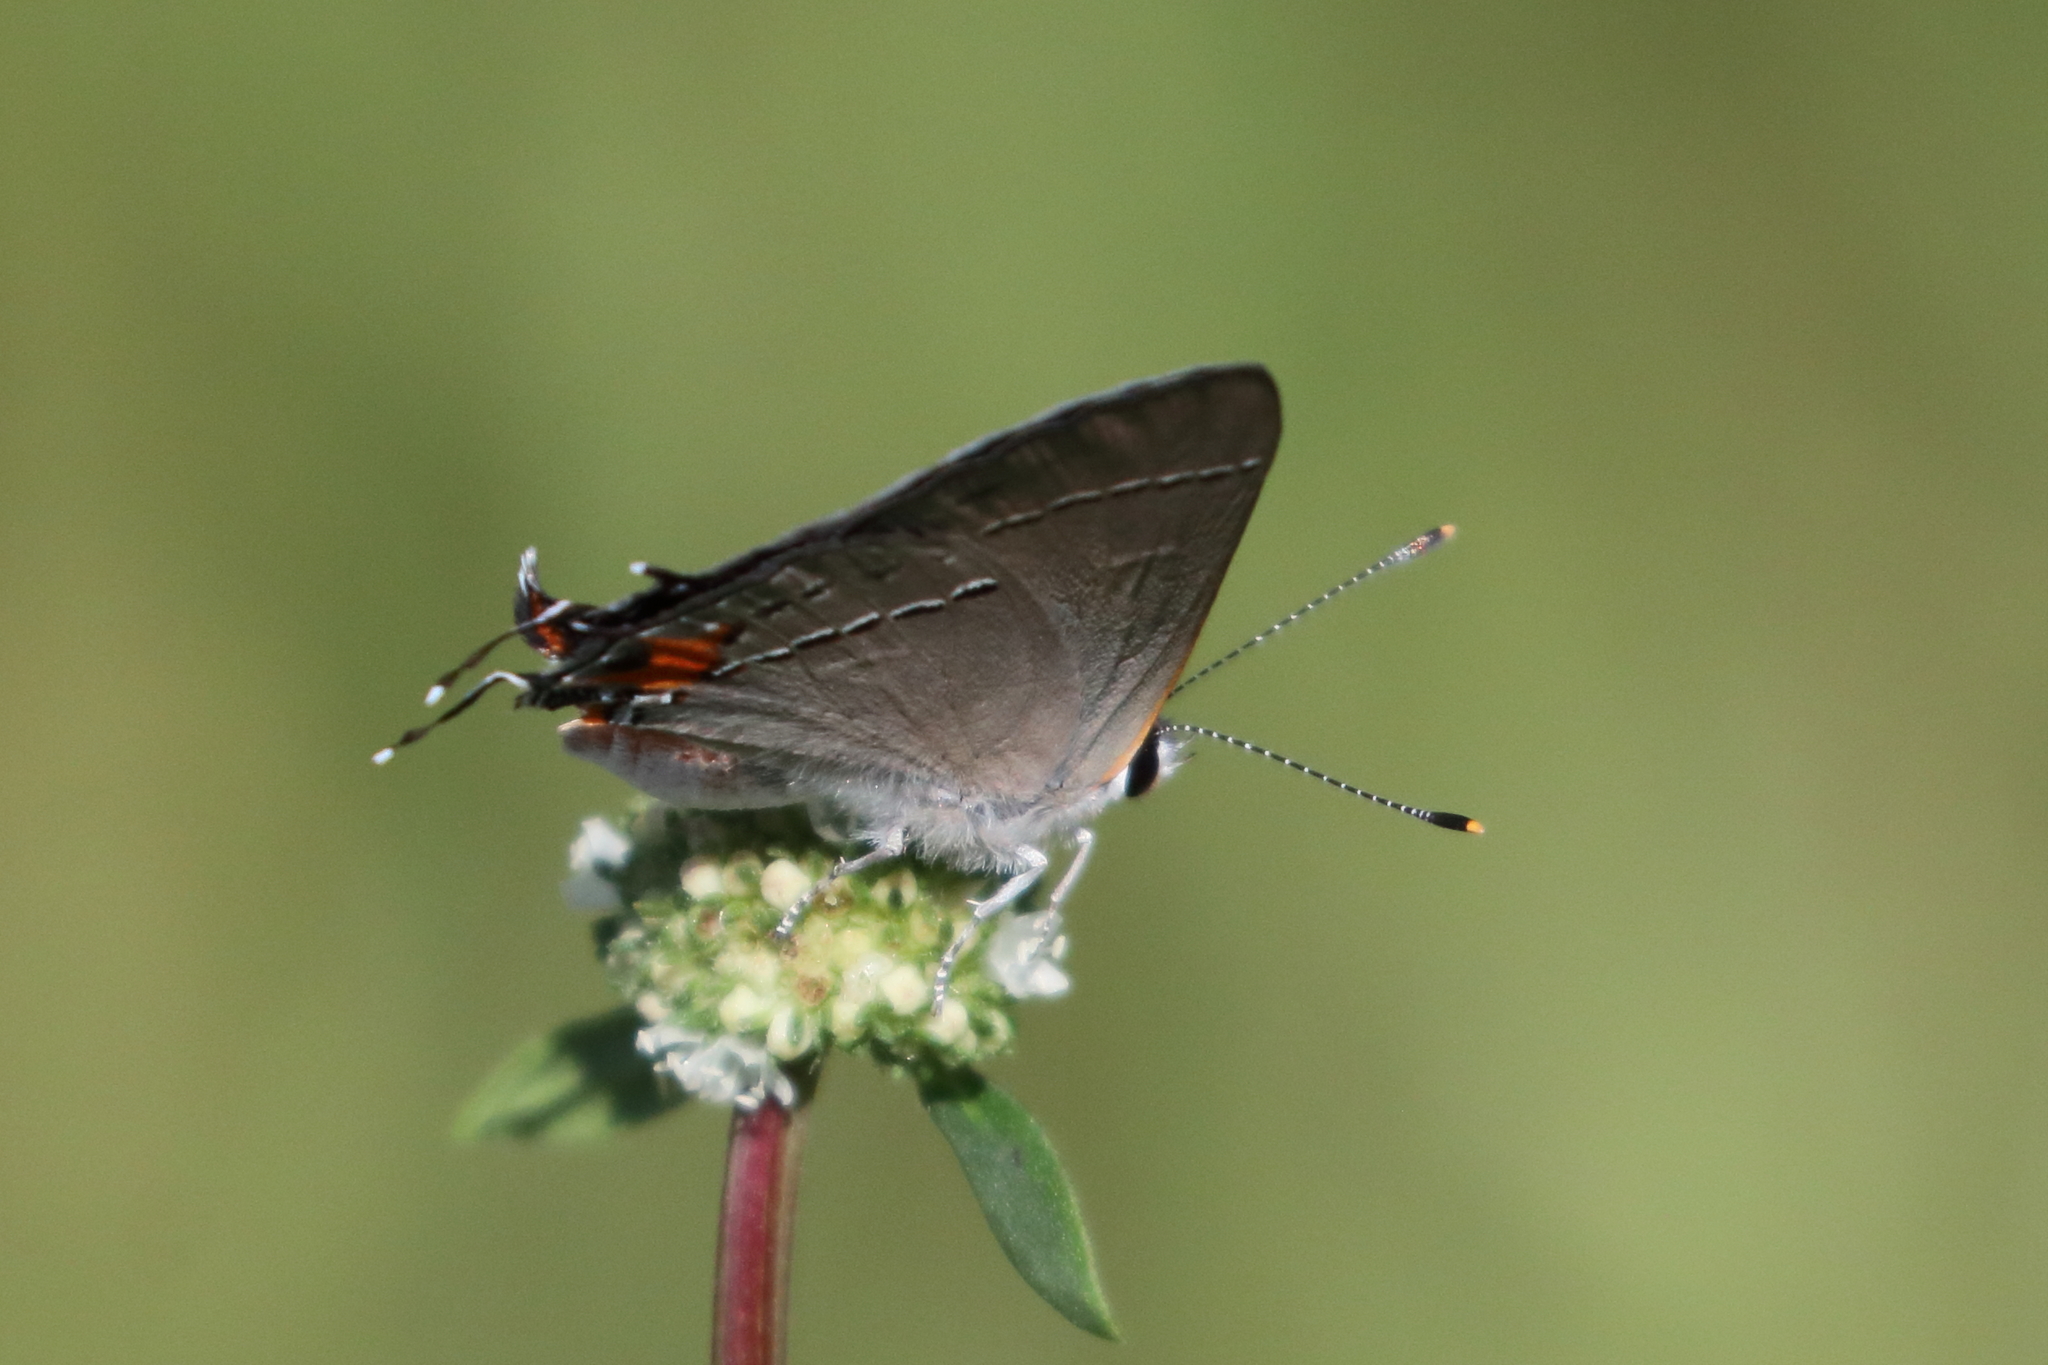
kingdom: Animalia
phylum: Arthropoda
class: Insecta
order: Lepidoptera
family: Lycaenidae
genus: Strymon
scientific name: Strymon melinus
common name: Gray hairstreak
